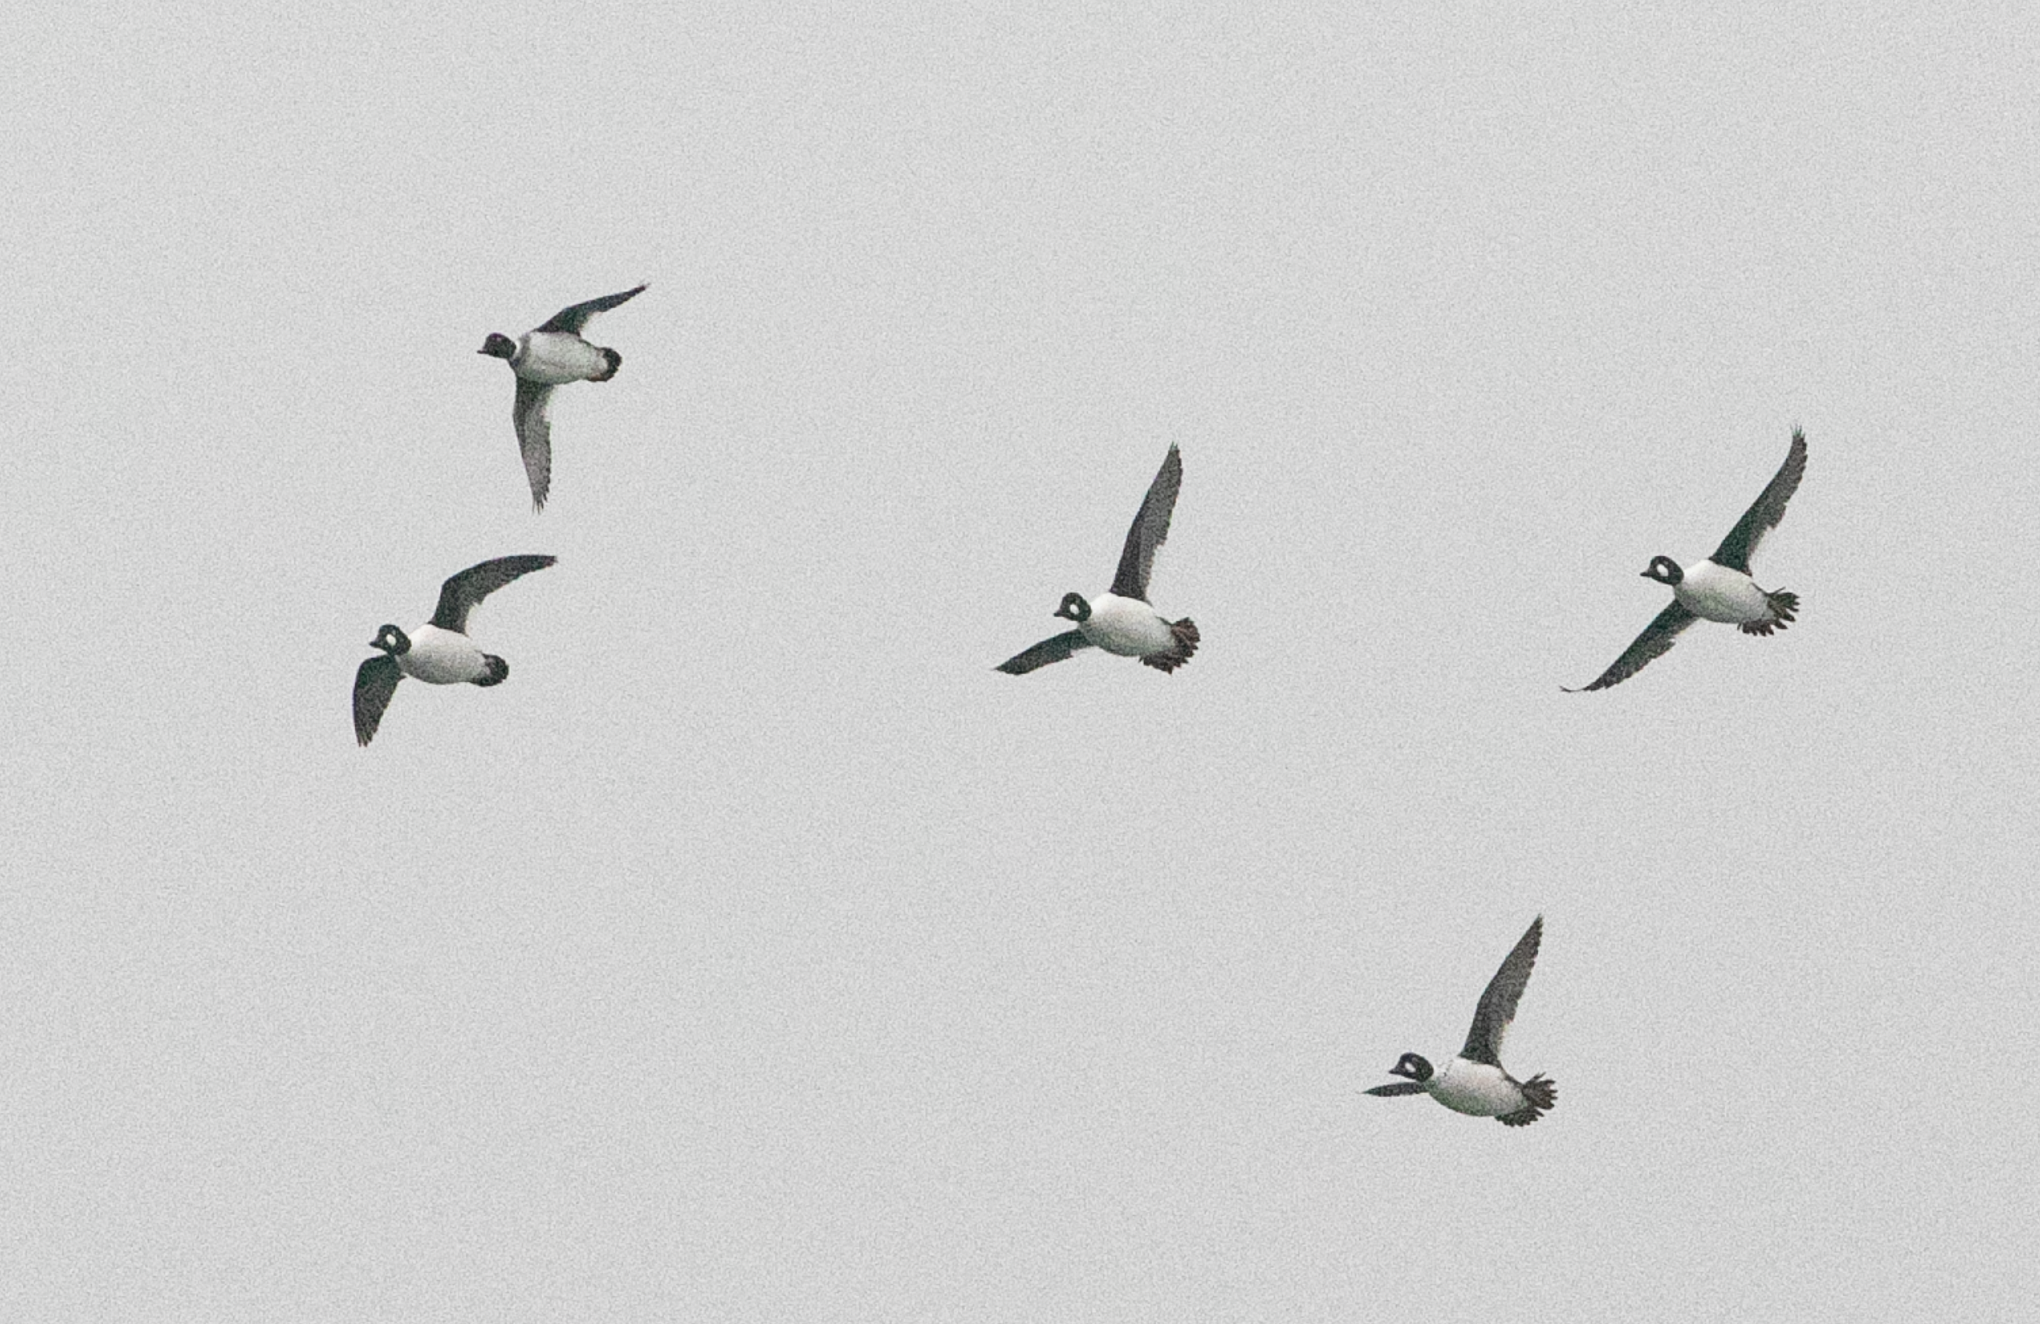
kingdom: Animalia
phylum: Chordata
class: Aves
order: Anseriformes
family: Anatidae
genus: Bucephala
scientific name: Bucephala clangula
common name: Common goldeneye
